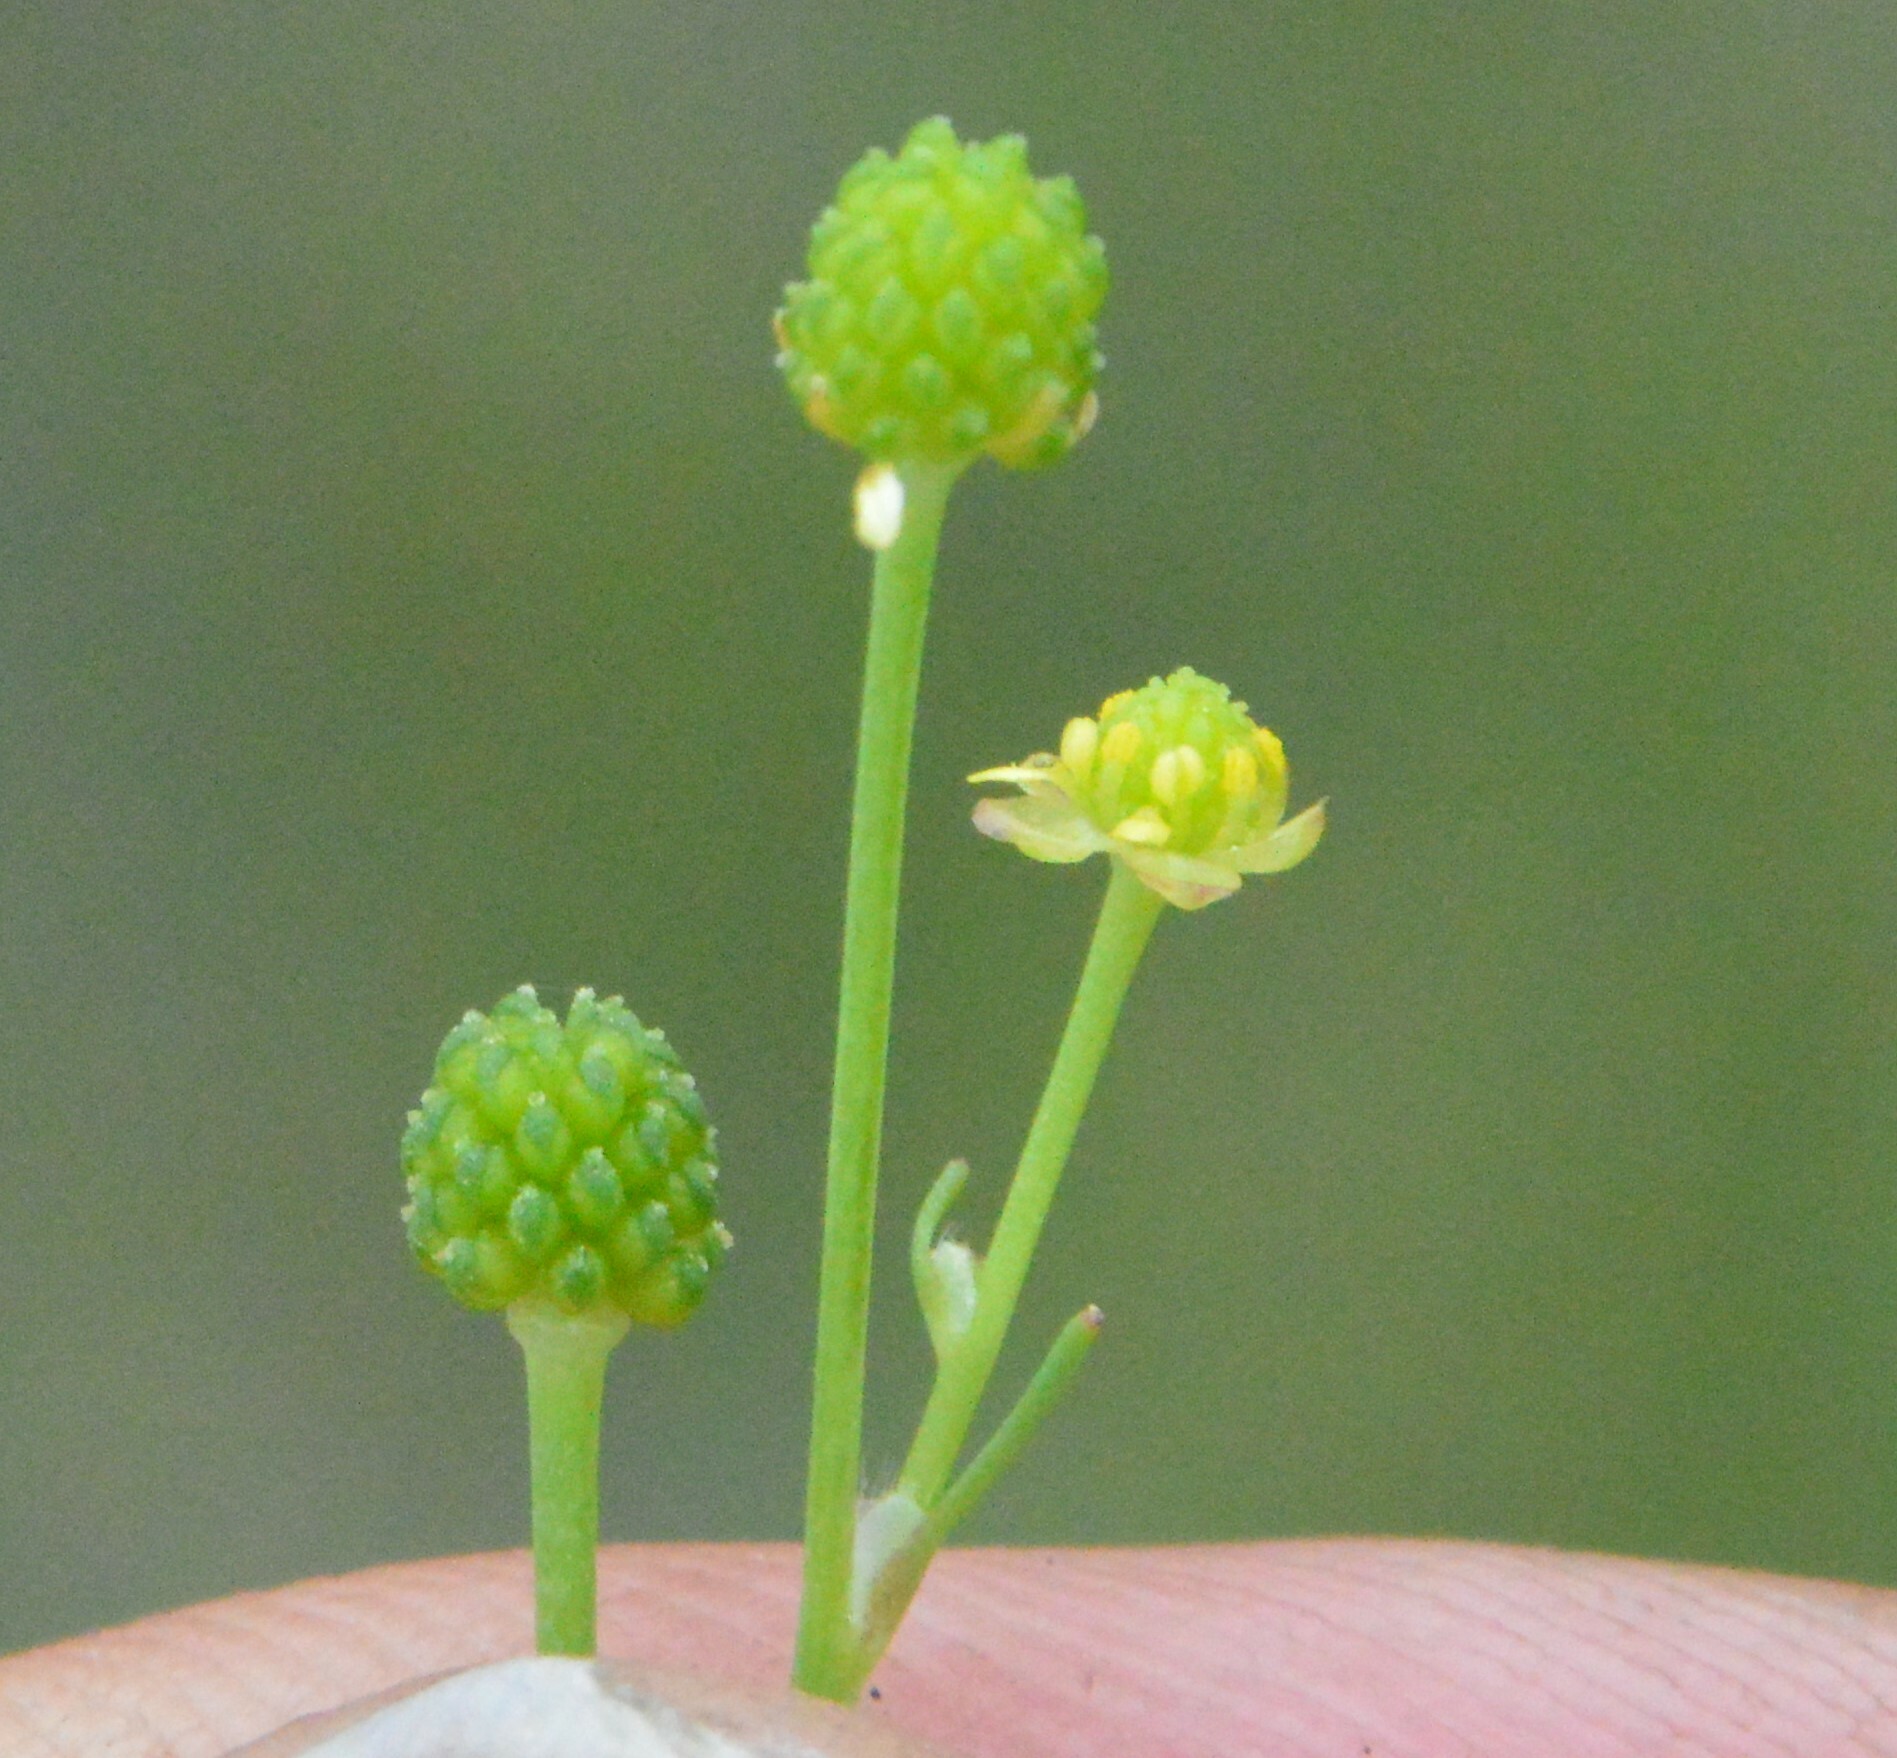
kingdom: Plantae
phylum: Tracheophyta
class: Magnoliopsida
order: Ranunculales
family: Ranunculaceae
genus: Ranunculus
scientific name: Ranunculus pusillus
